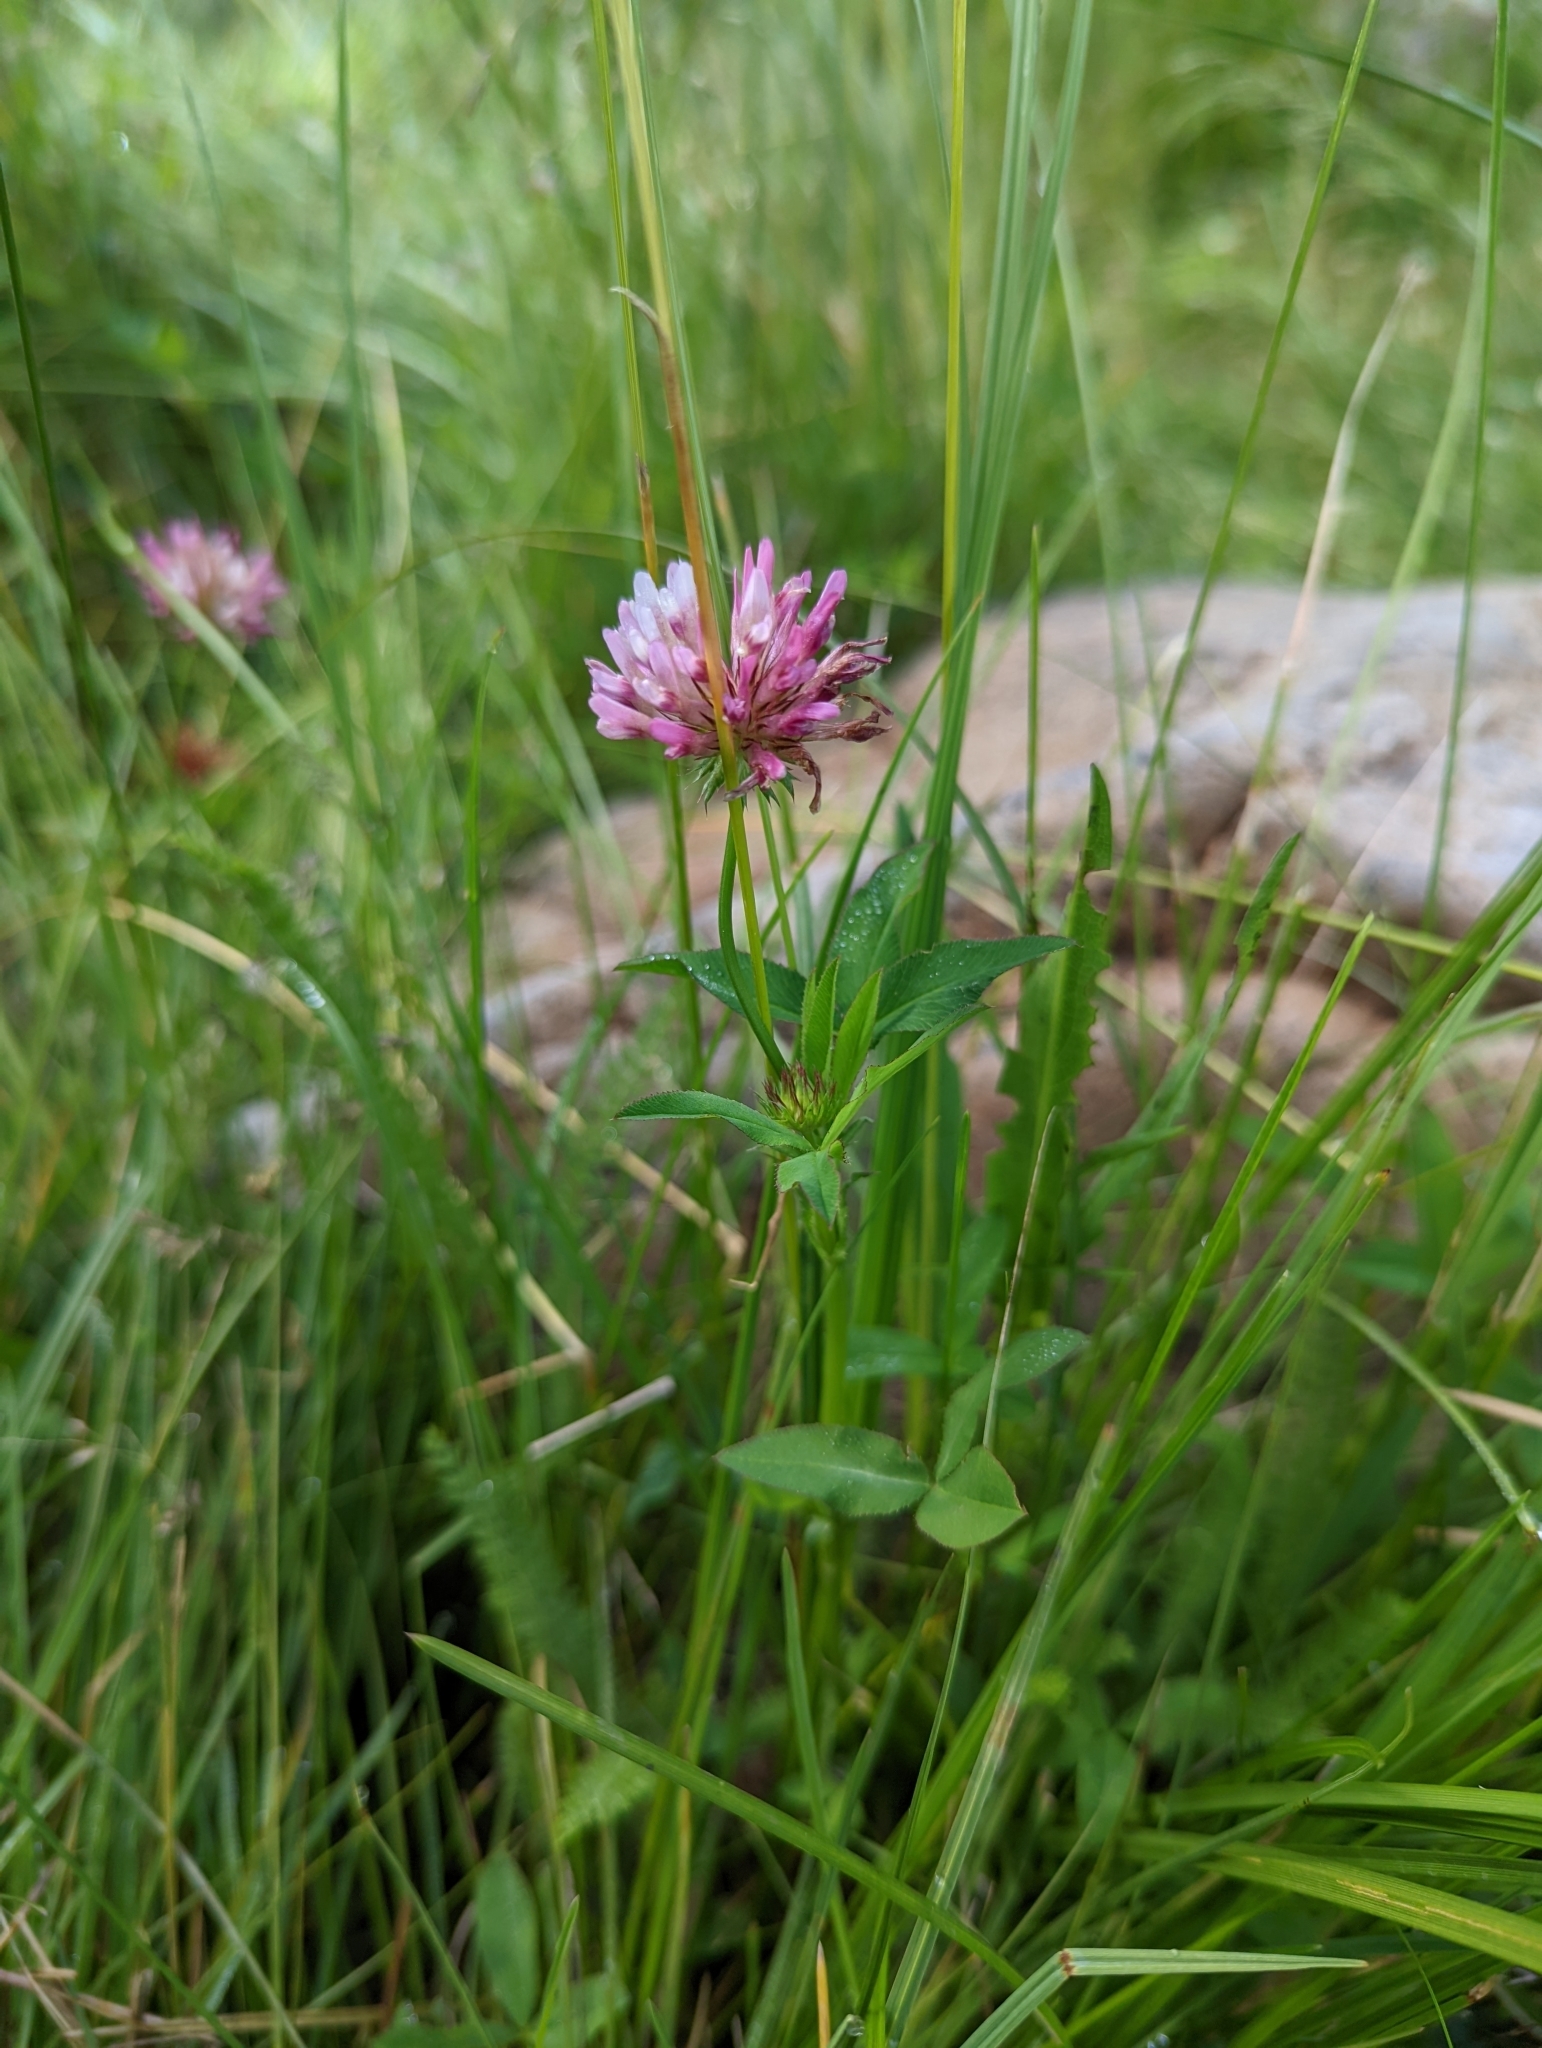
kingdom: Plantae
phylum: Tracheophyta
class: Magnoliopsida
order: Fabales
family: Fabaceae
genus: Trifolium
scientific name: Trifolium wormskioldii
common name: Springbank clover
